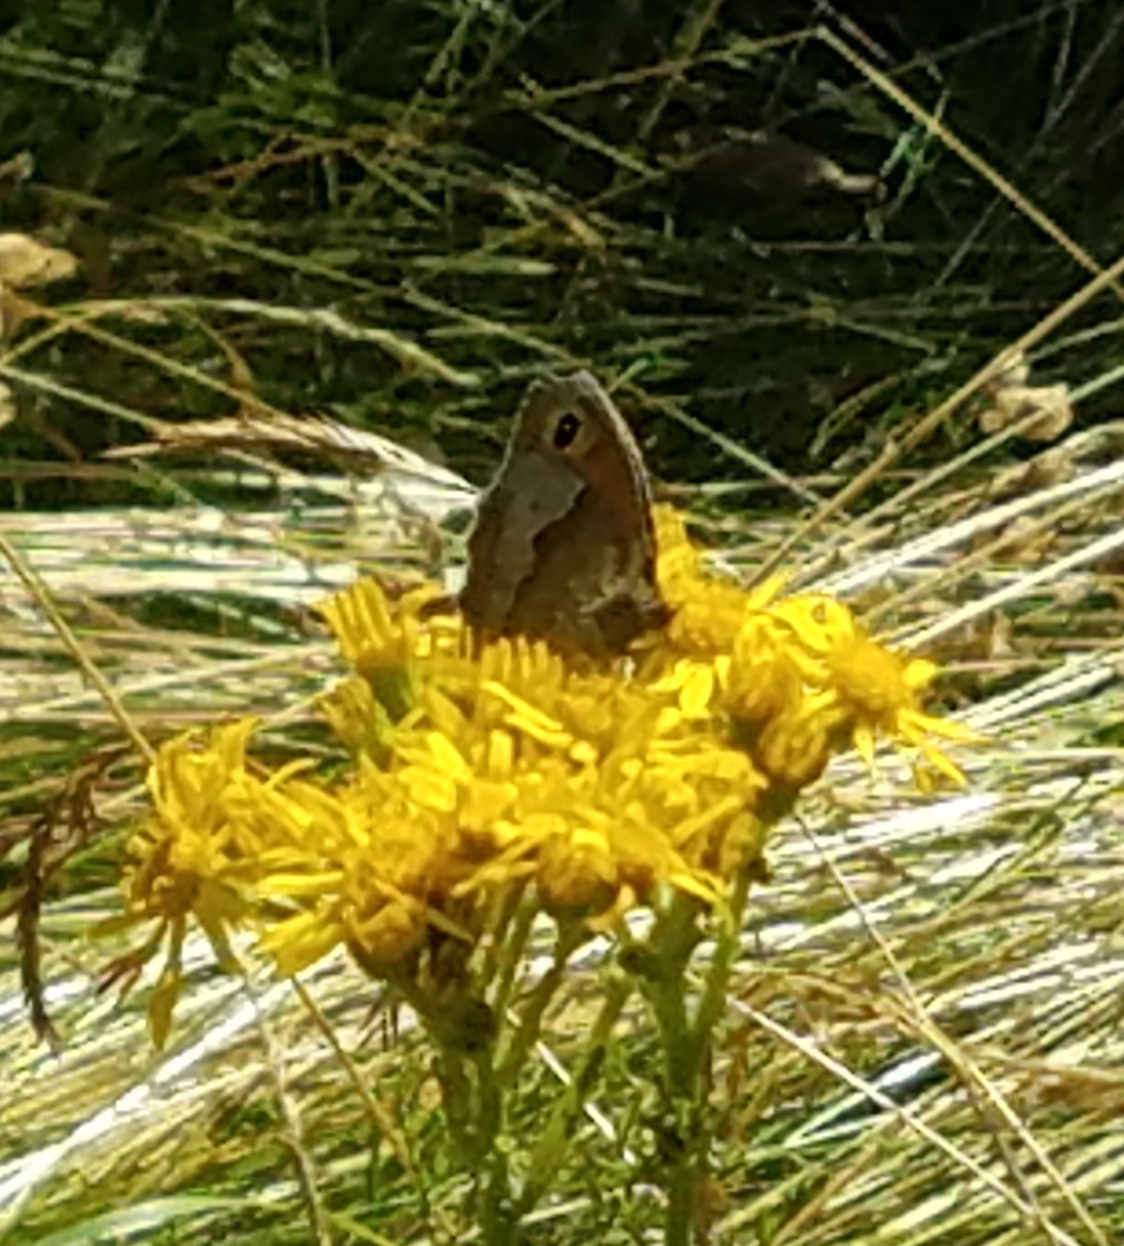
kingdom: Animalia
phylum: Arthropoda
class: Insecta
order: Lepidoptera
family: Nymphalidae
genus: Maniola
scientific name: Maniola jurtina
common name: Meadow brown
